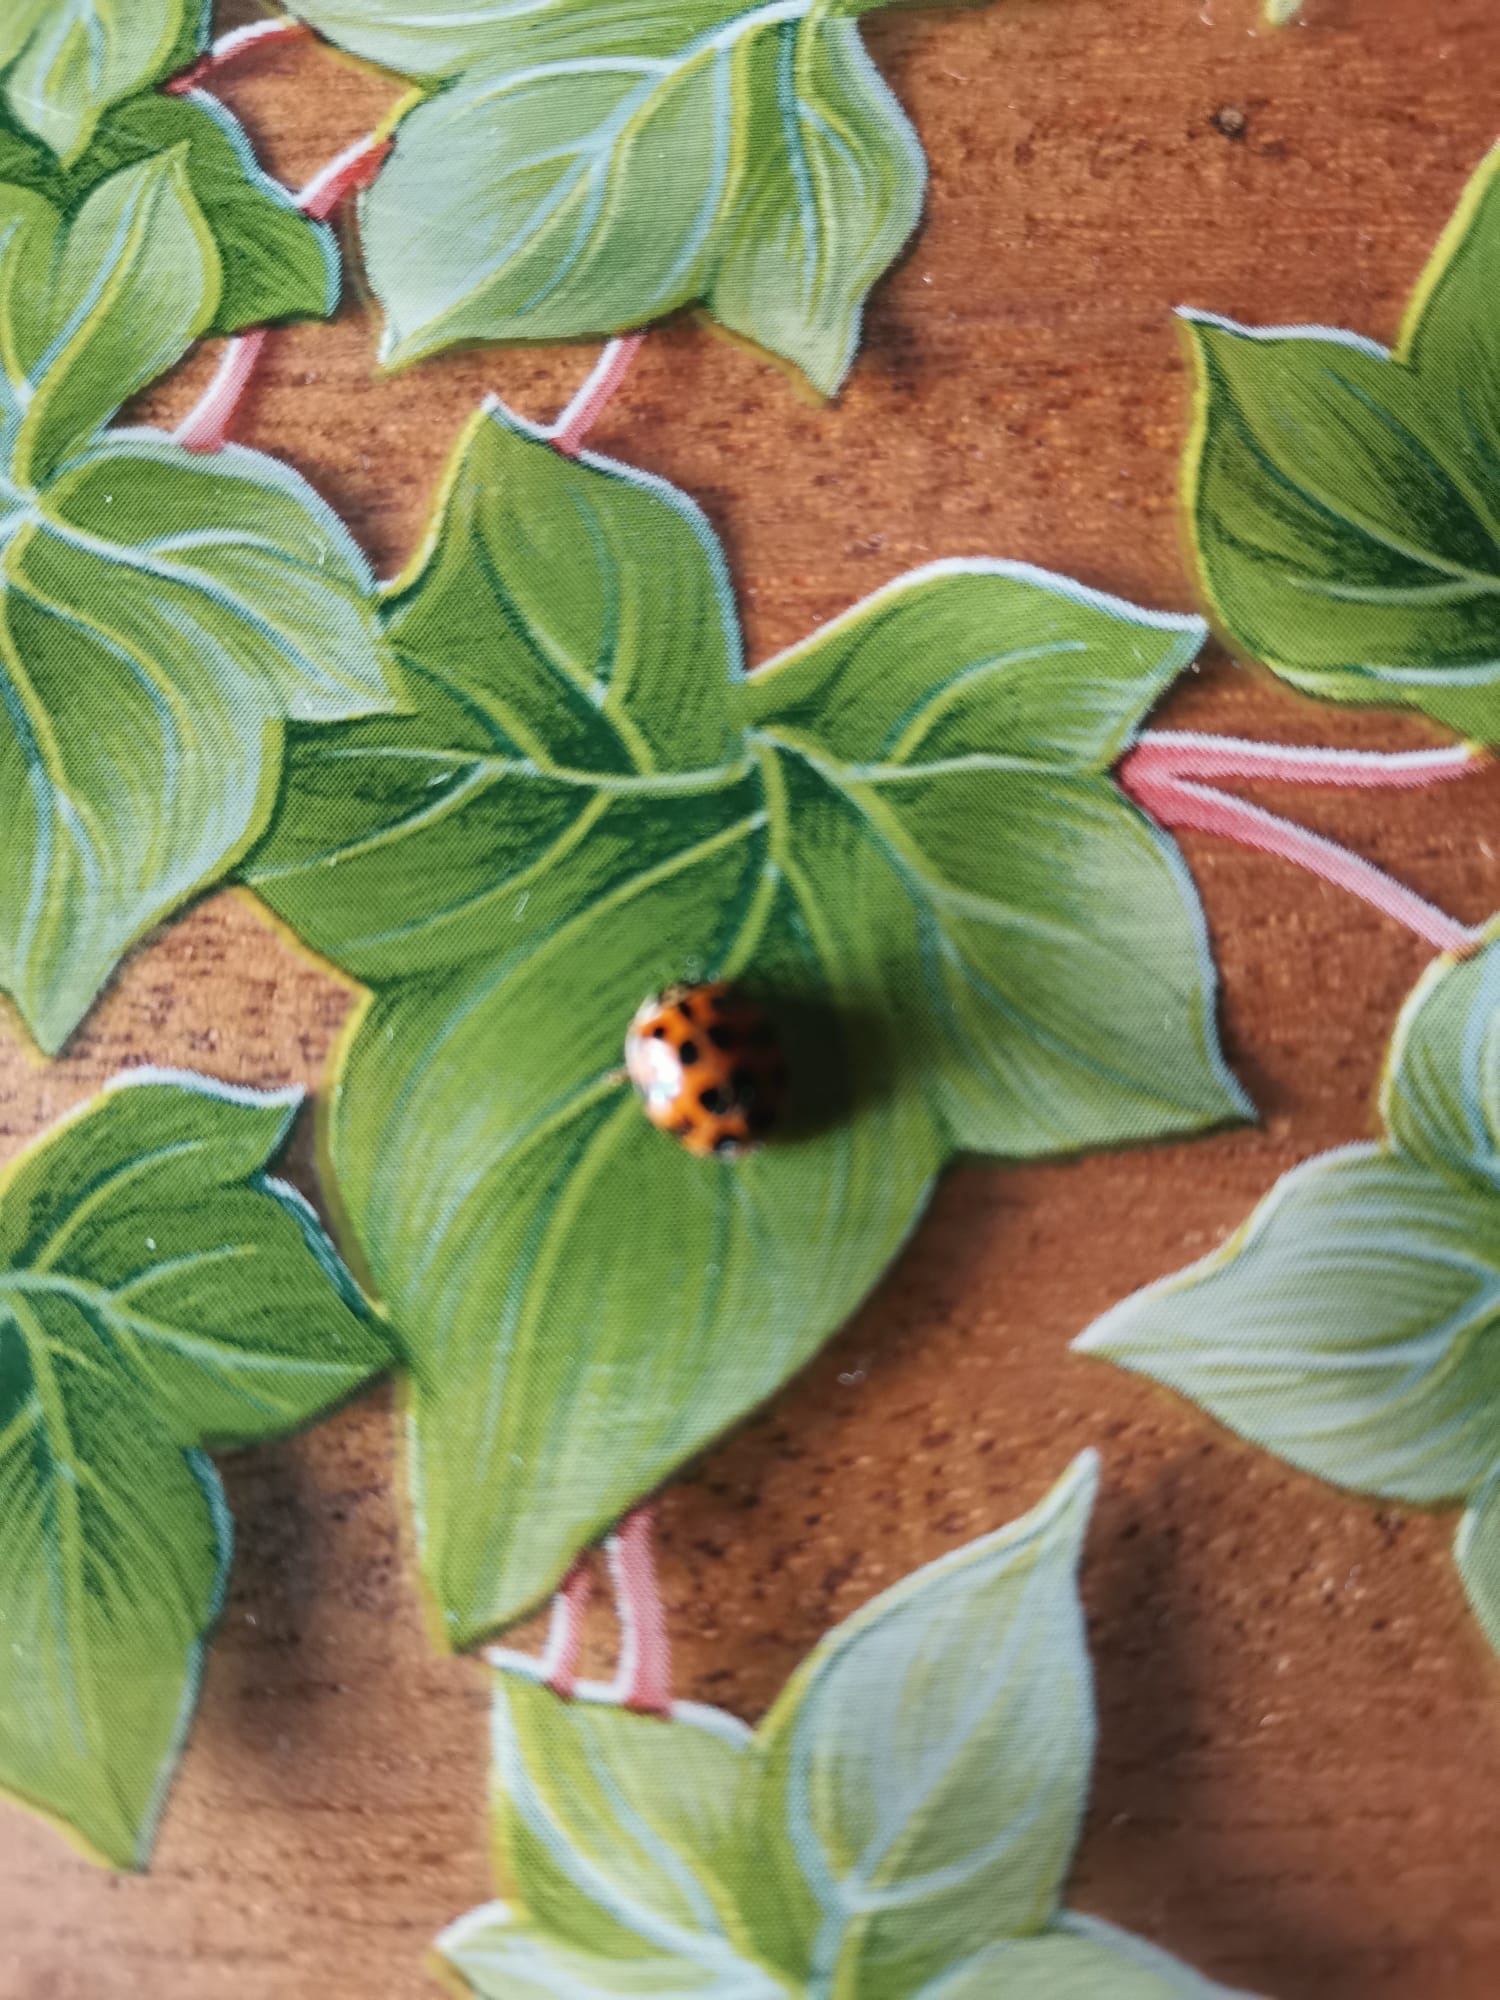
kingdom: Animalia
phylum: Arthropoda
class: Insecta
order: Coleoptera
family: Coccinellidae
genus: Harmonia
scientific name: Harmonia axyridis
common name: Harlequin ladybird
